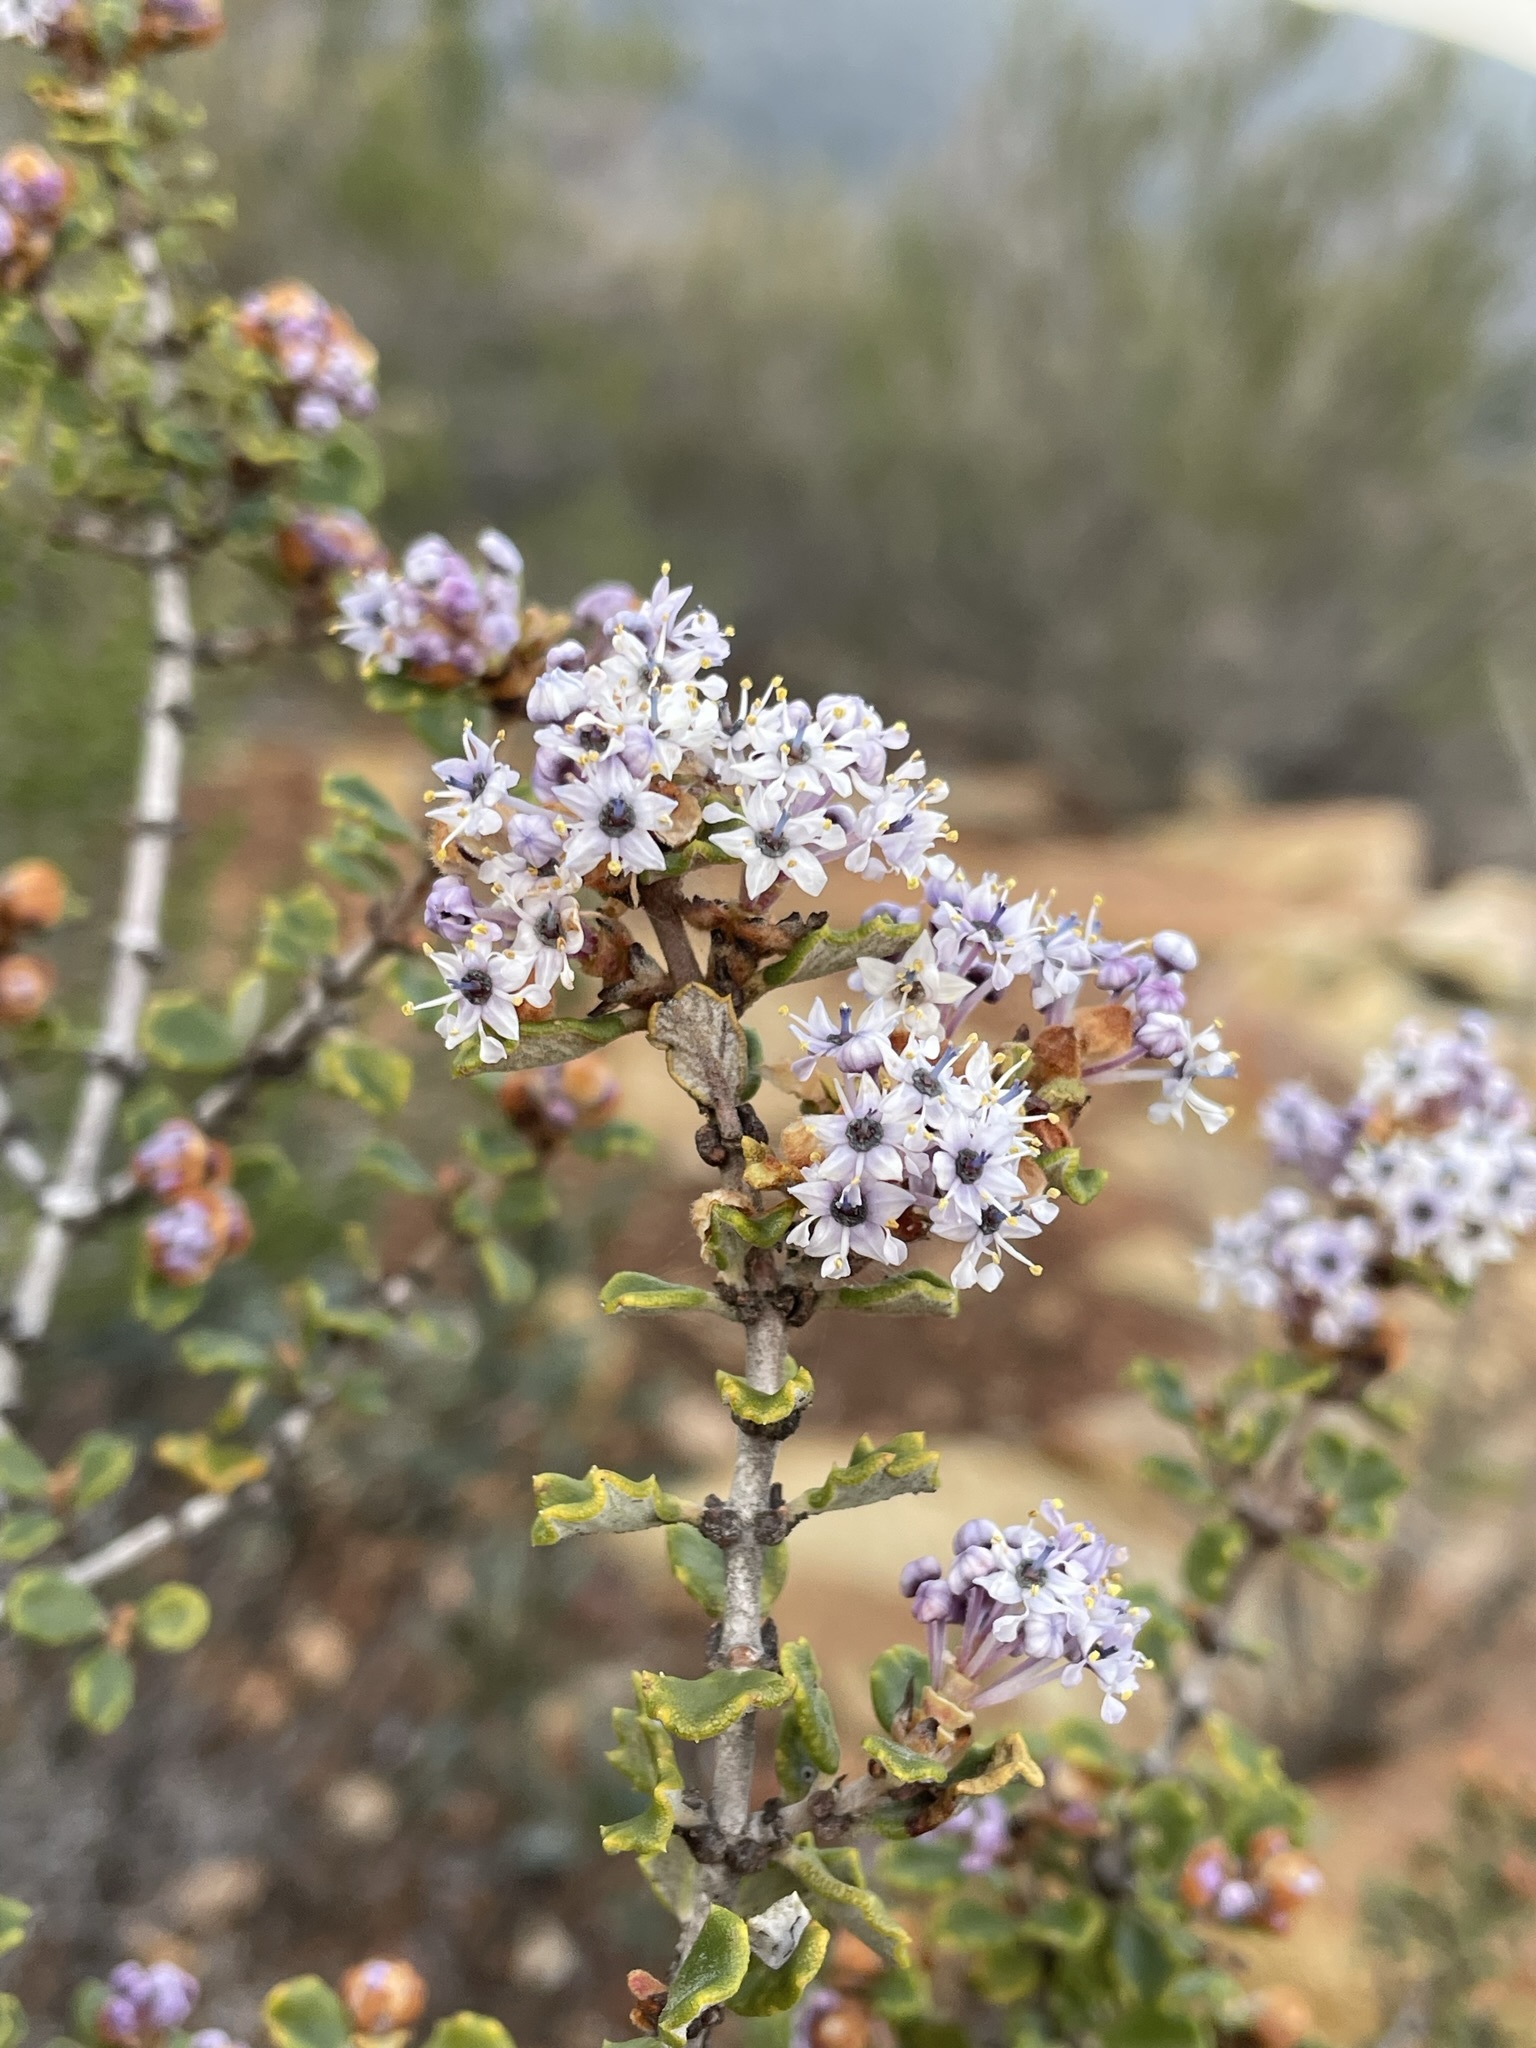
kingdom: Plantae
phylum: Tracheophyta
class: Magnoliopsida
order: Rosales
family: Rhamnaceae
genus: Ceanothus
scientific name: Ceanothus otayensis
